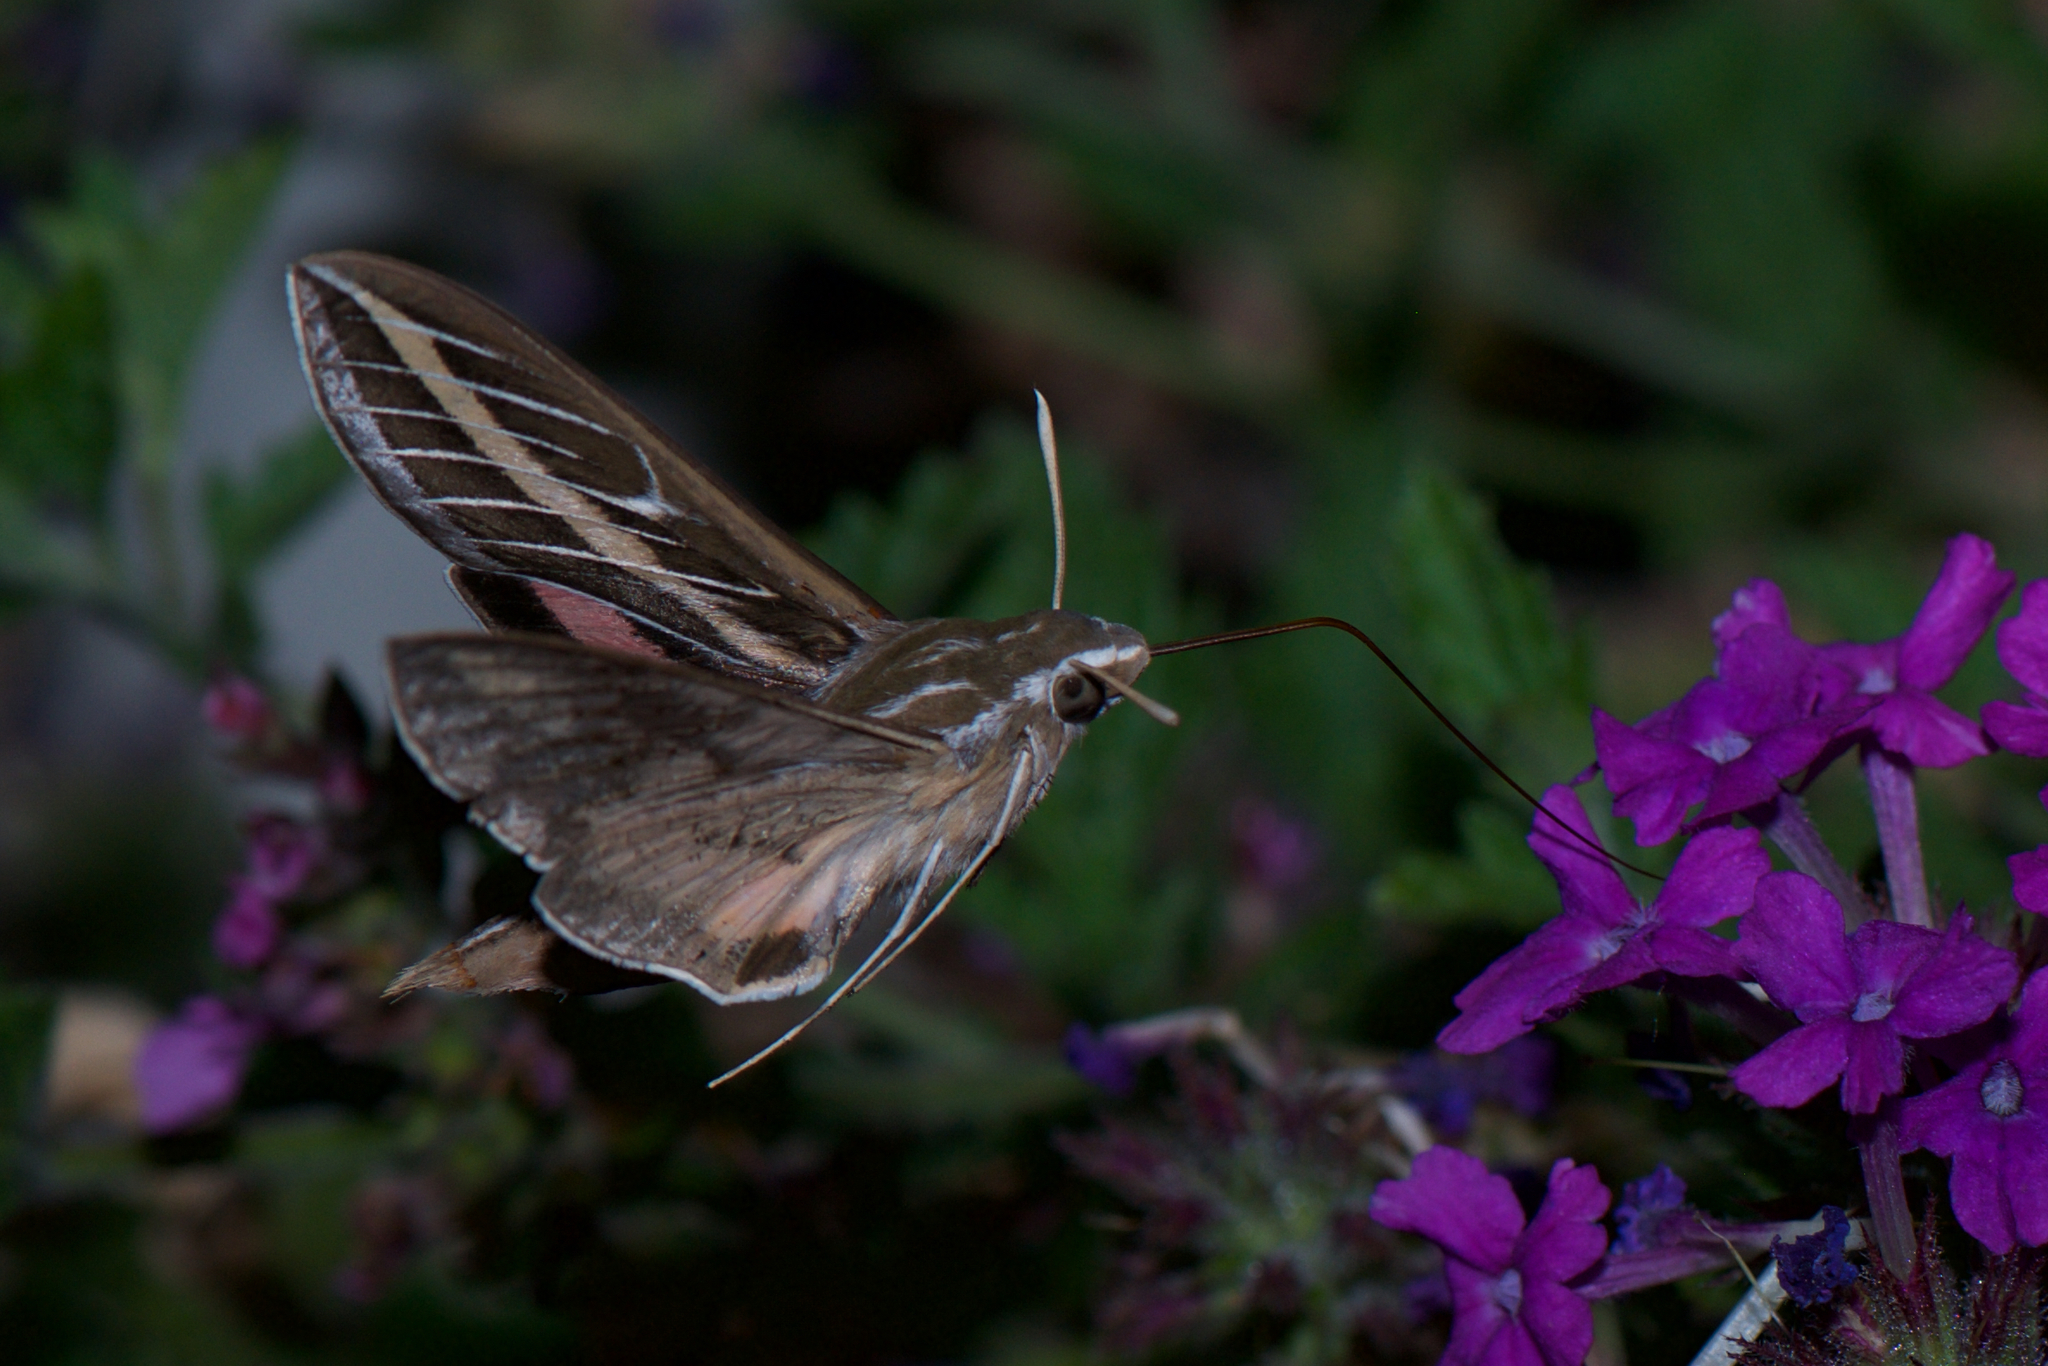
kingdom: Animalia
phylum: Arthropoda
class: Insecta
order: Lepidoptera
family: Sphingidae
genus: Hyles
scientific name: Hyles lineata
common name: White-lined sphinx
